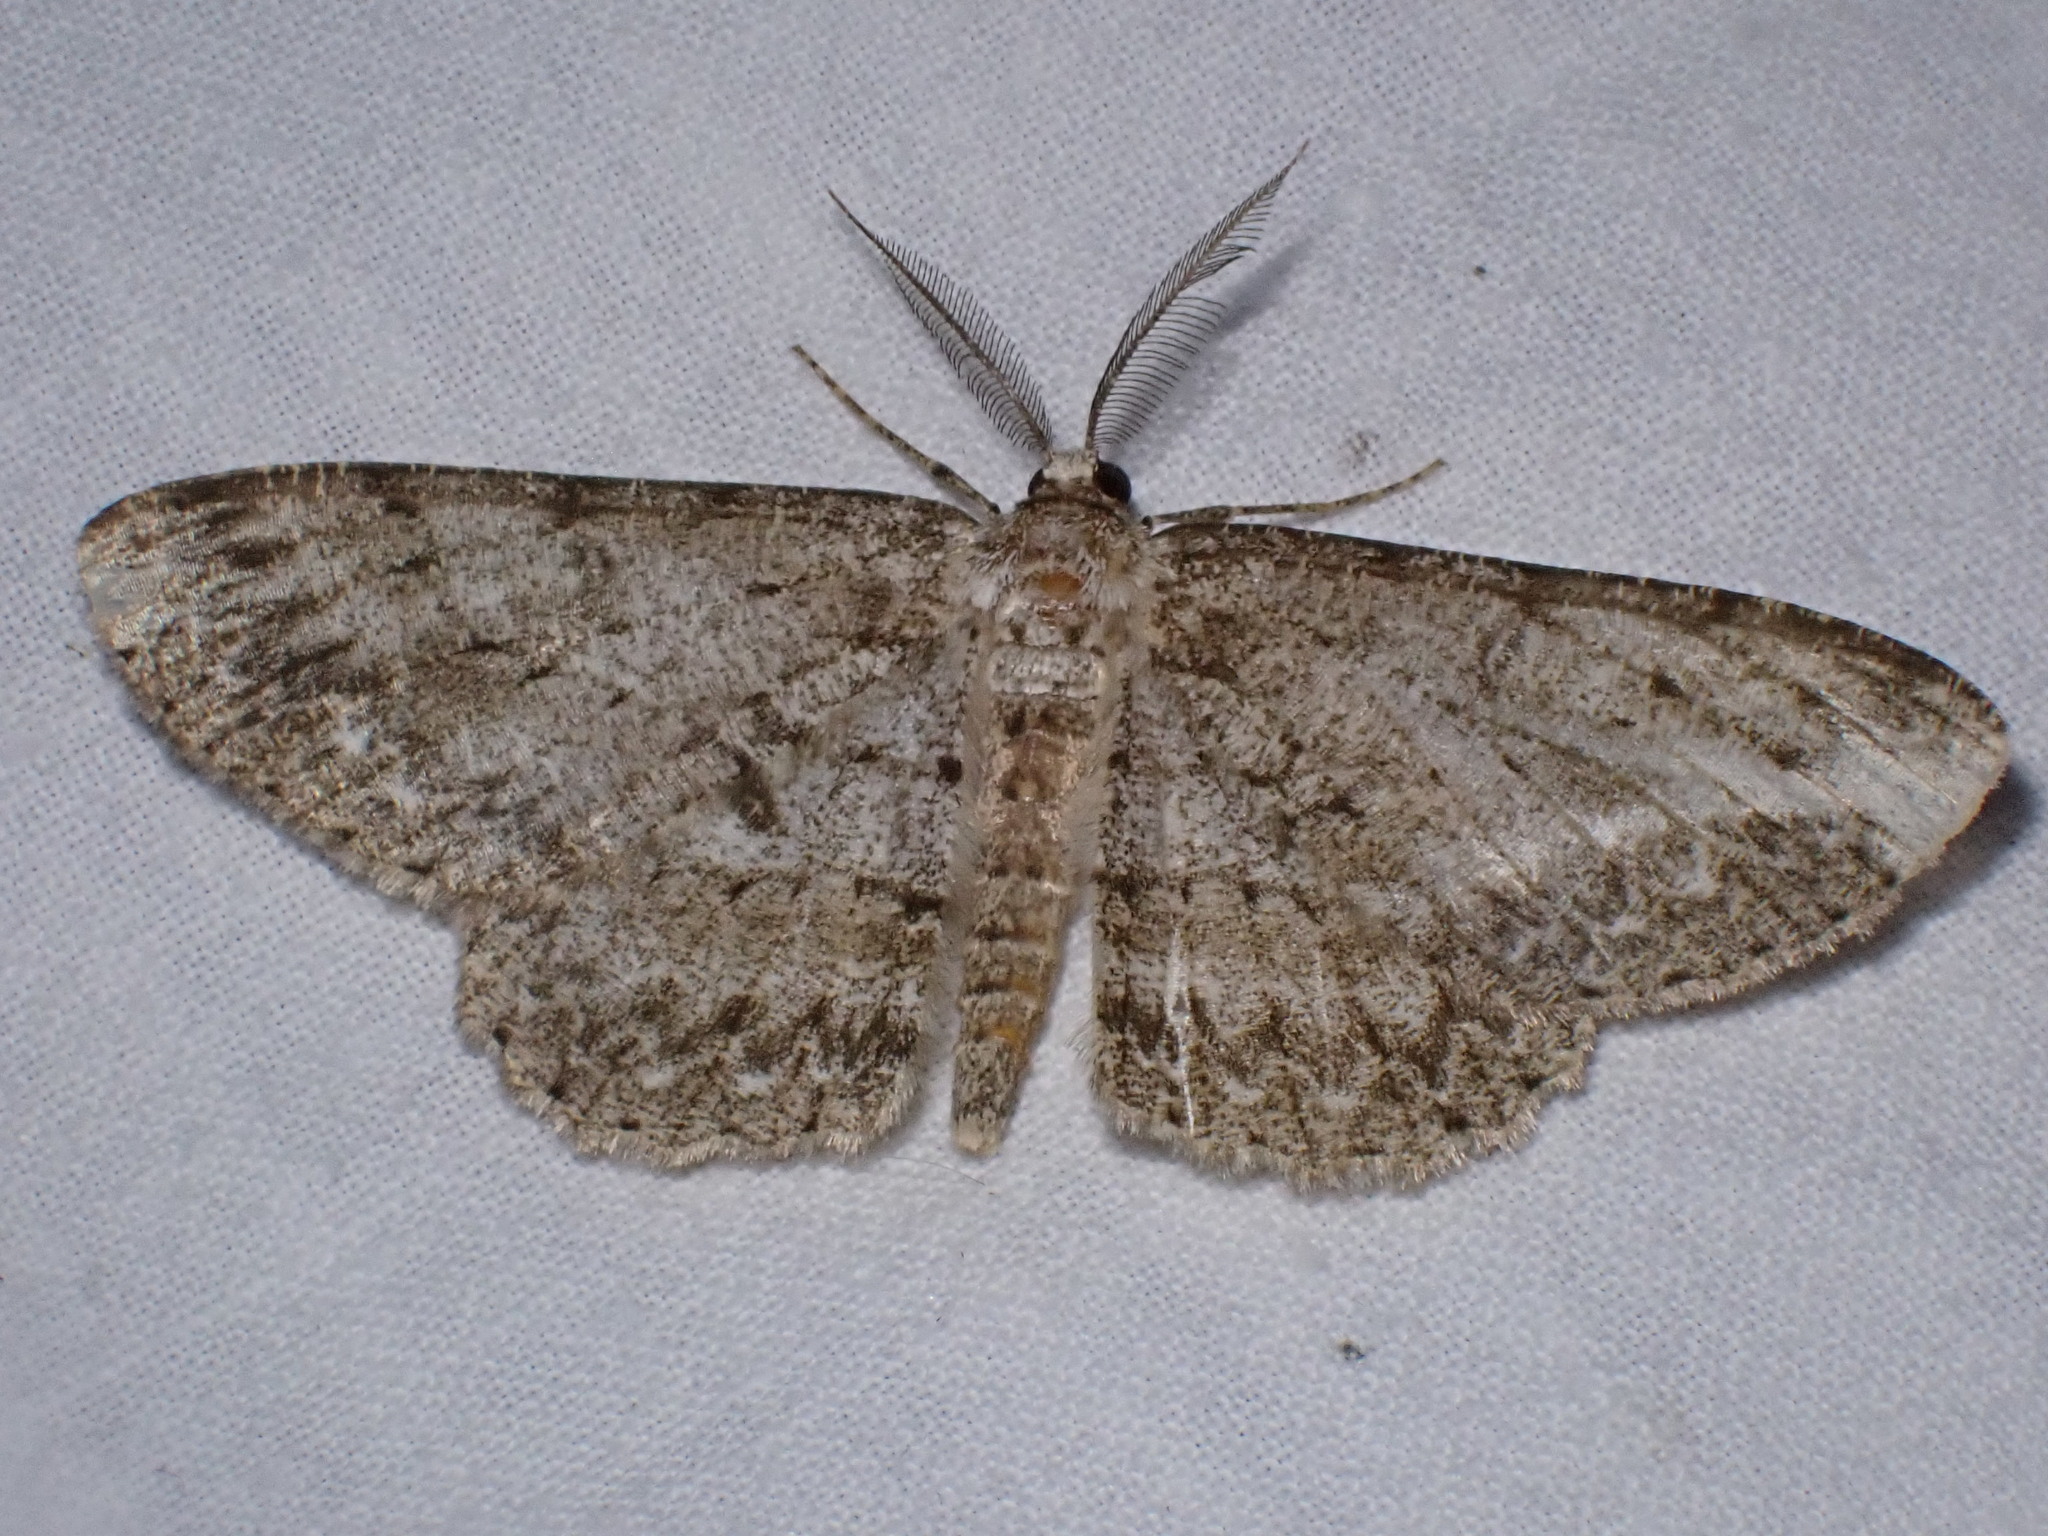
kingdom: Animalia
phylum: Arthropoda
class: Insecta
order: Lepidoptera
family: Geometridae
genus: Hypomecis
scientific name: Hypomecis punctinalis
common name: Pale oak beauty
